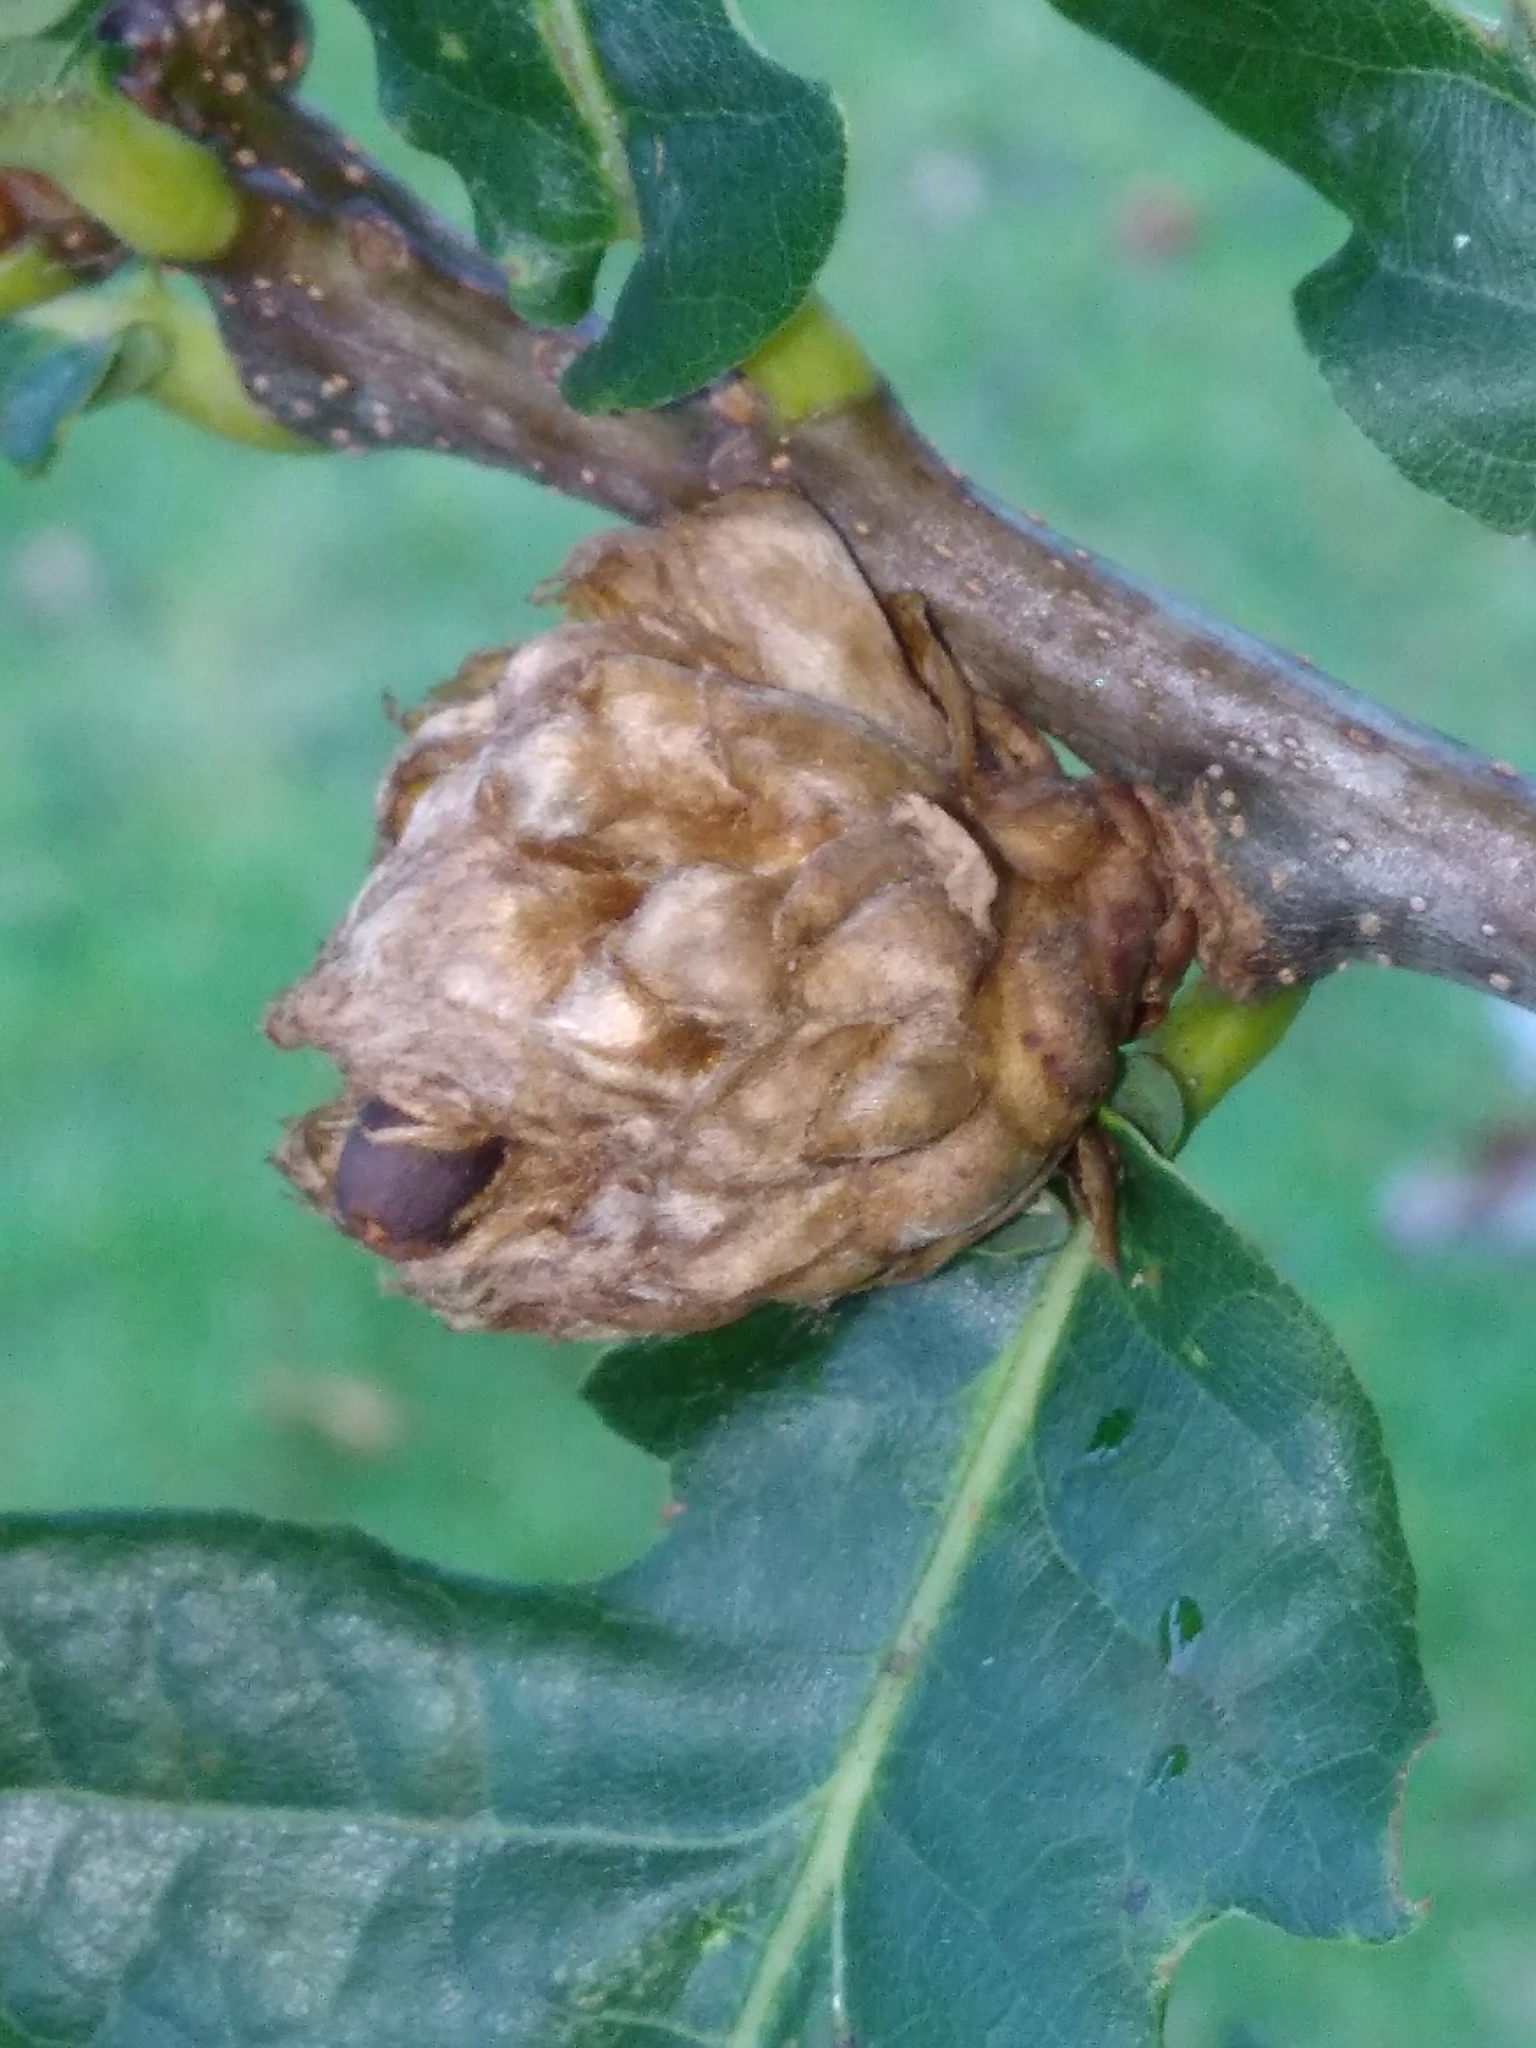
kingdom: Animalia
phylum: Arthropoda
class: Insecta
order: Hymenoptera
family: Cynipidae
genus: Andricus
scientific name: Andricus foecundatrix
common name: Artichoke gall
